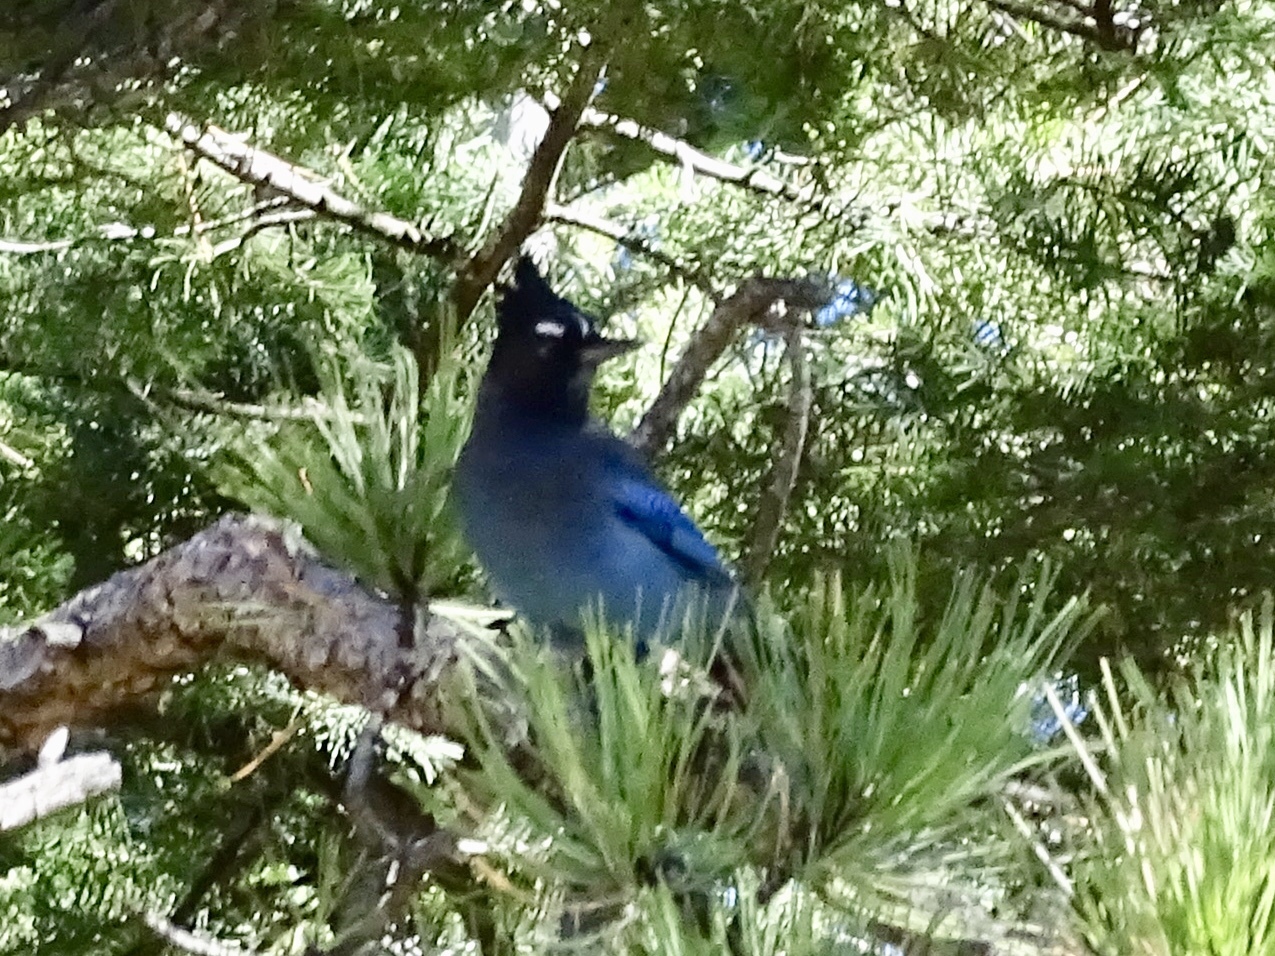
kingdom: Animalia
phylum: Chordata
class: Aves
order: Passeriformes
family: Corvidae
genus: Cyanocitta
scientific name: Cyanocitta stelleri
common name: Steller's jay
